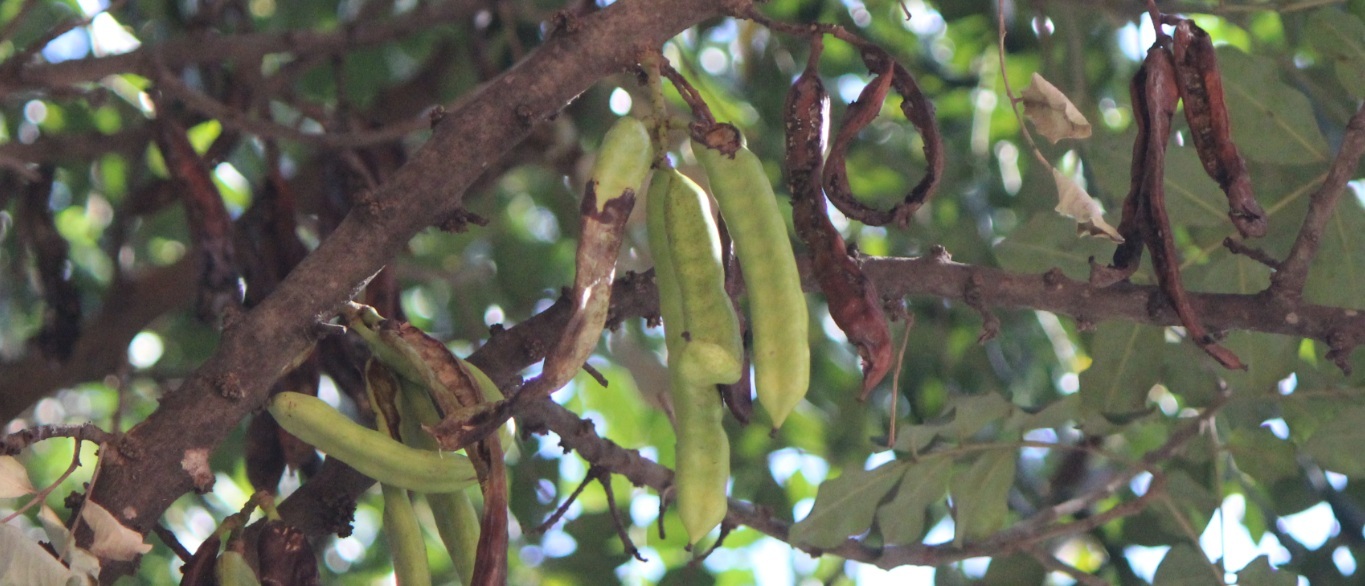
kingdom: Plantae
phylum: Tracheophyta
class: Magnoliopsida
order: Fabales
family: Fabaceae
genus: Ceratonia
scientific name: Ceratonia siliqua
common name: Carob
